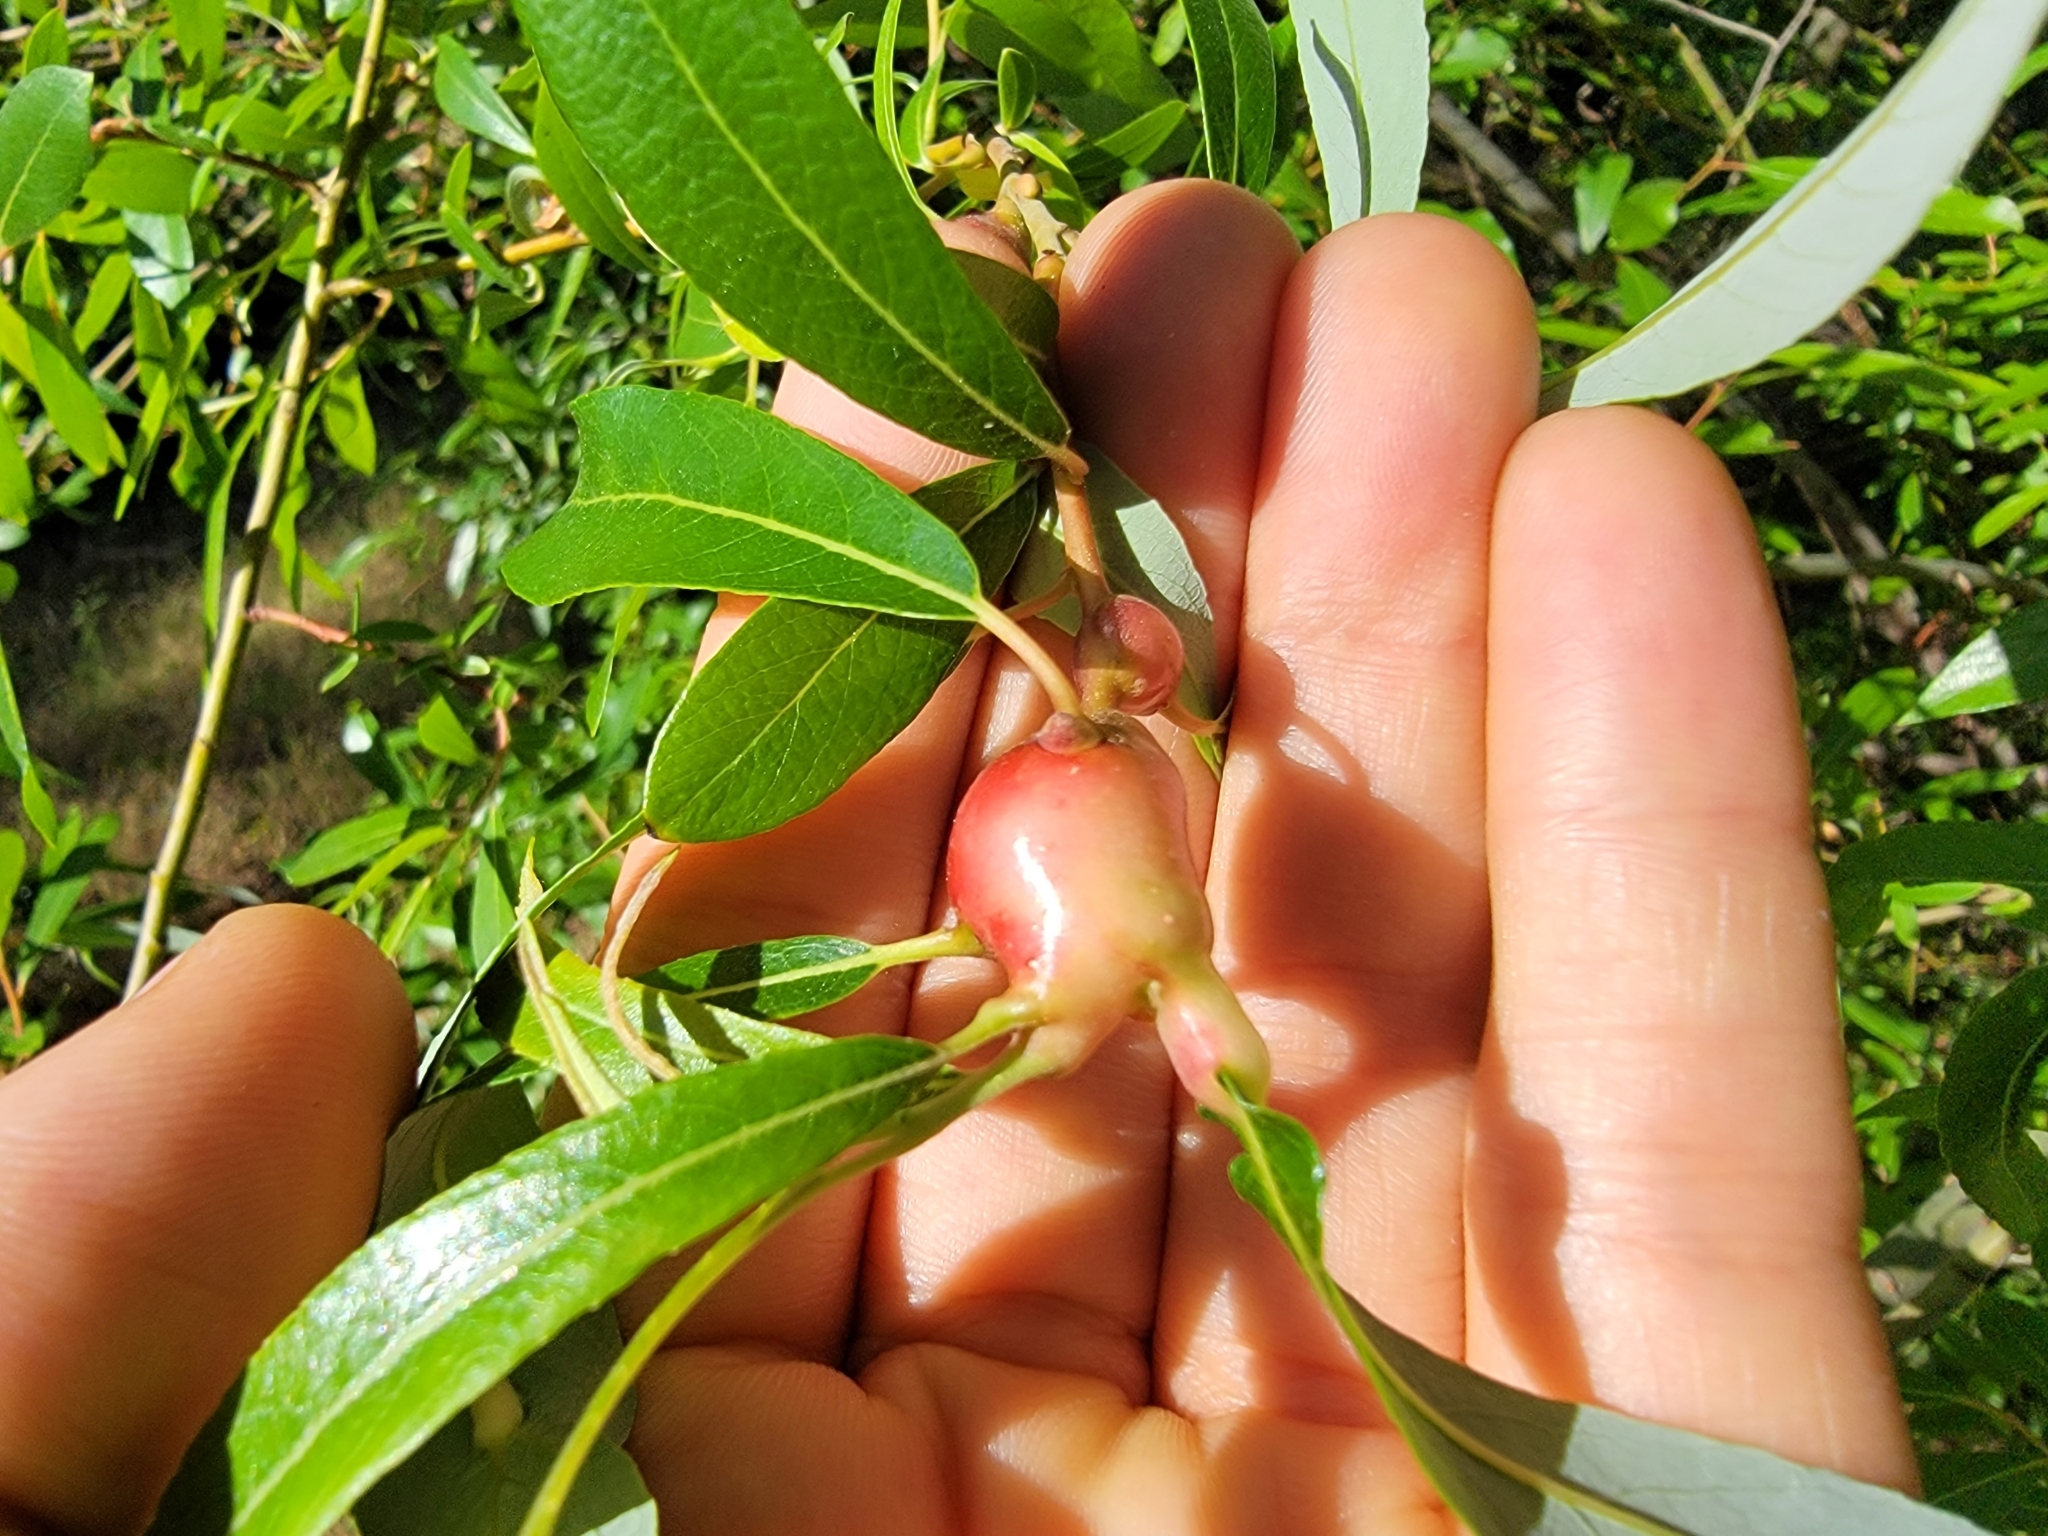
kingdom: Animalia
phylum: Arthropoda
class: Insecta
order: Diptera
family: Cecidomyiidae
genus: Rabdophaga
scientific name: Rabdophaga salicisbatatas
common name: Potato gall midge
